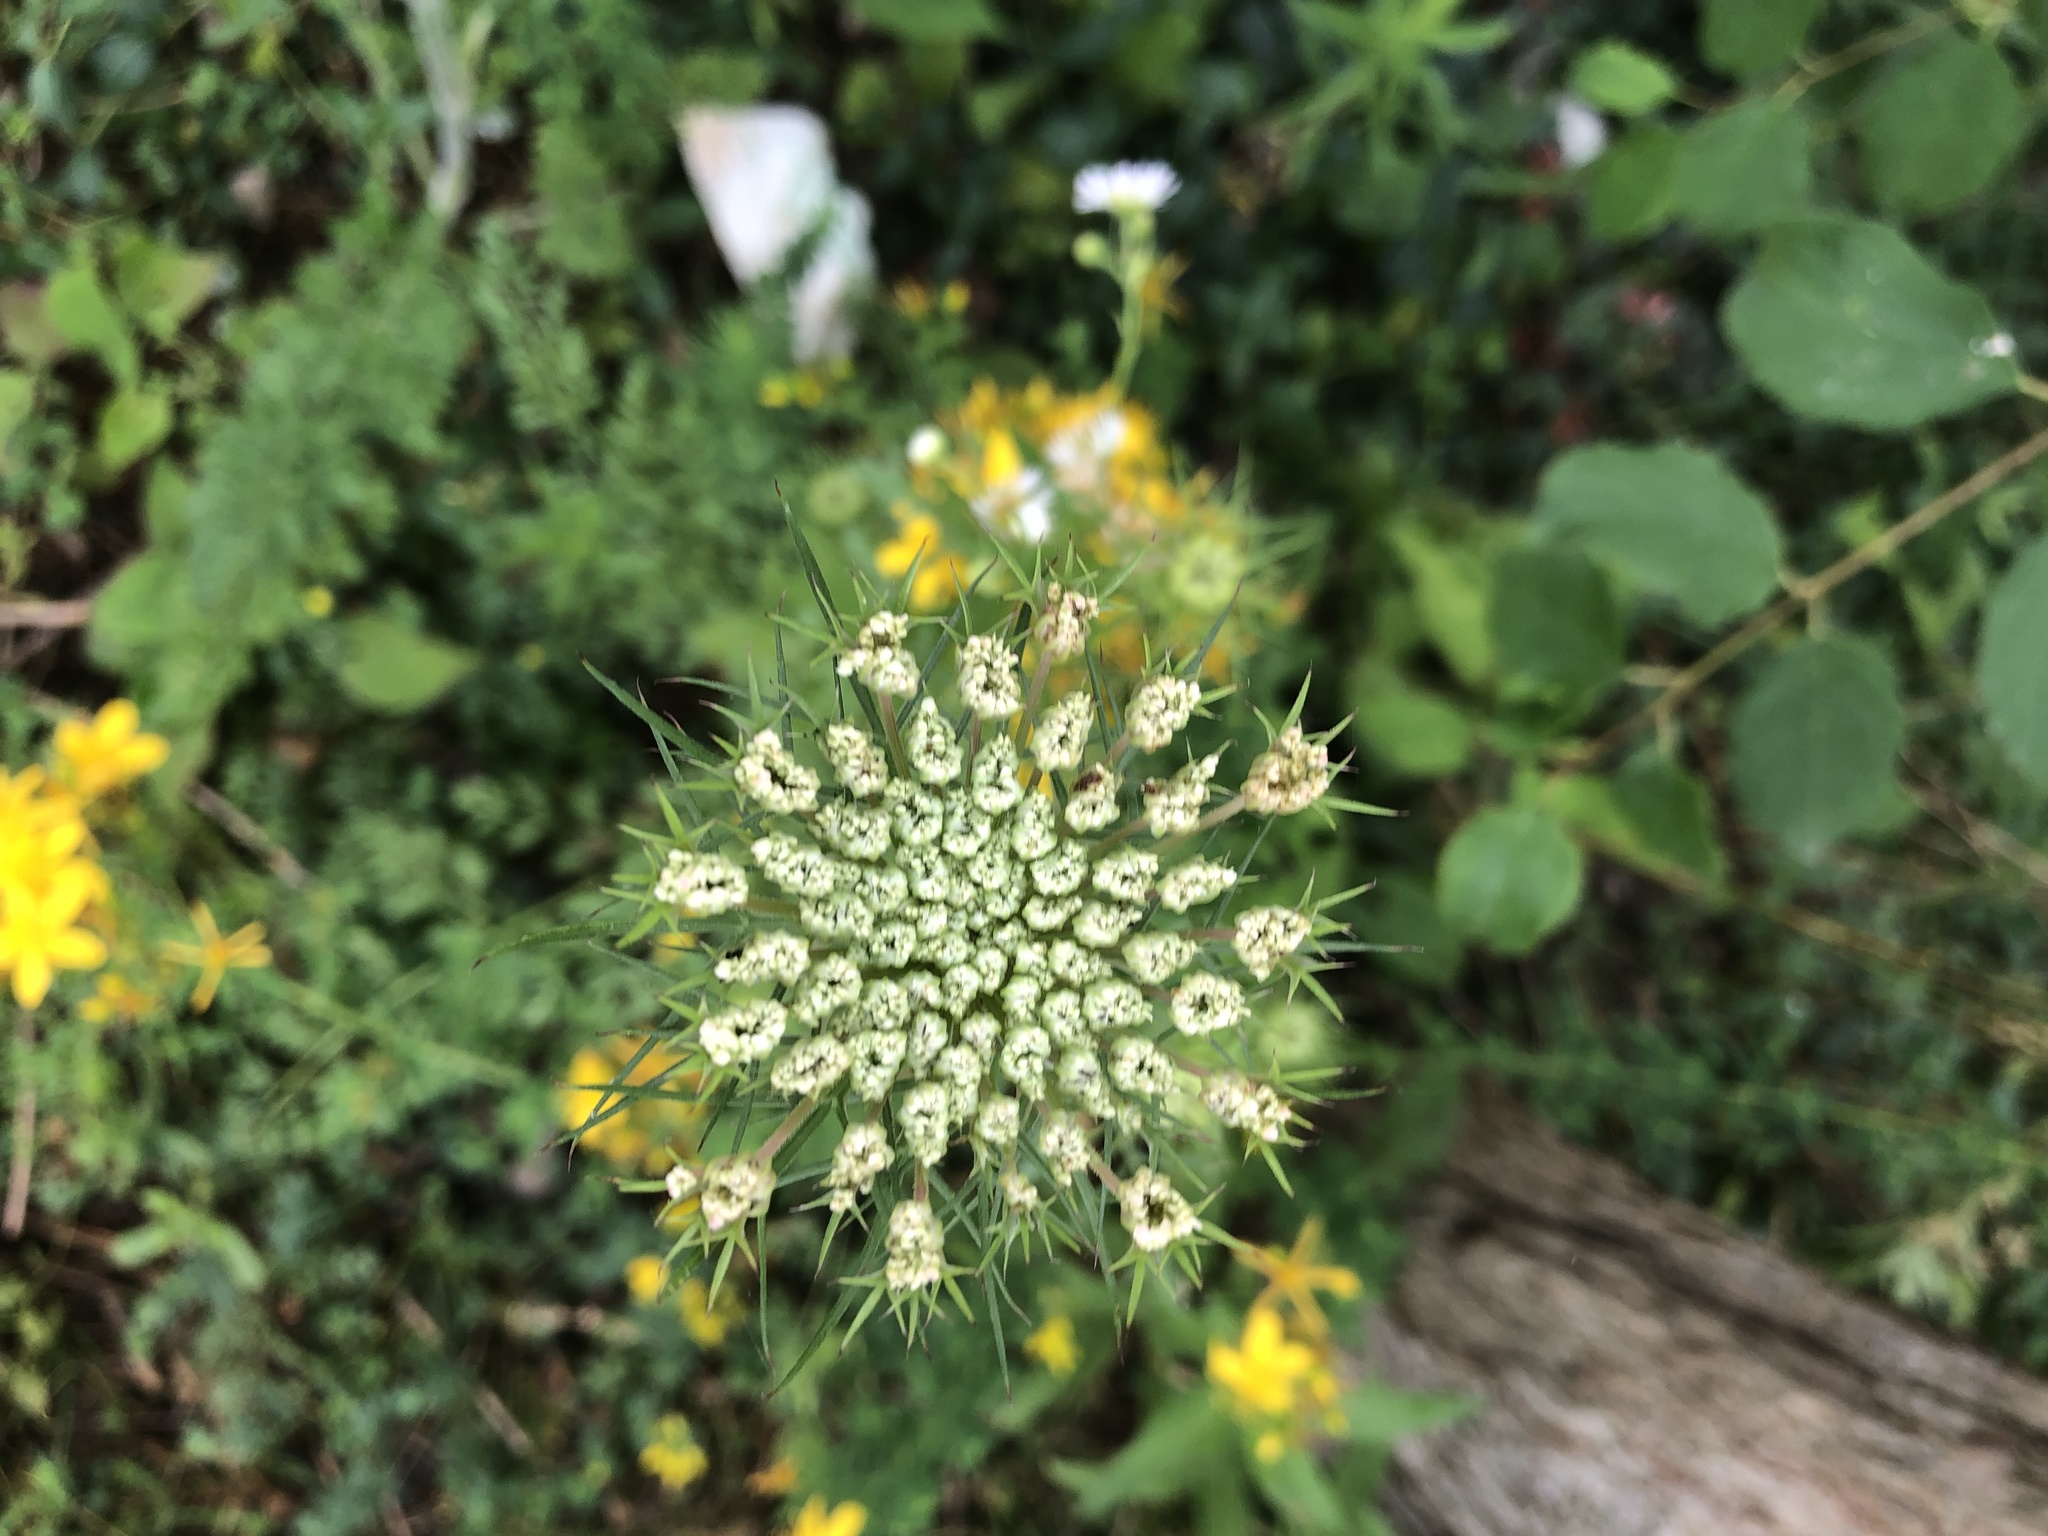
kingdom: Plantae
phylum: Tracheophyta
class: Magnoliopsida
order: Apiales
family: Apiaceae
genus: Daucus
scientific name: Daucus carota
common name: Wild carrot
